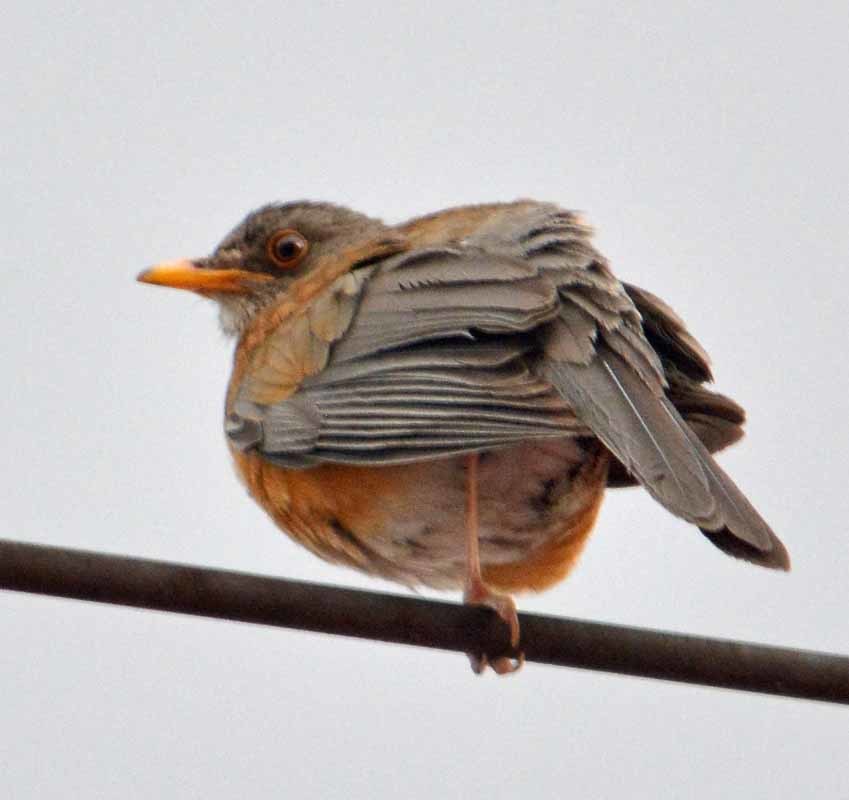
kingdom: Animalia
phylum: Chordata
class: Aves
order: Passeriformes
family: Turdidae
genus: Turdus
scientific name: Turdus rufopalliatus
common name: Rufous-backed robin
